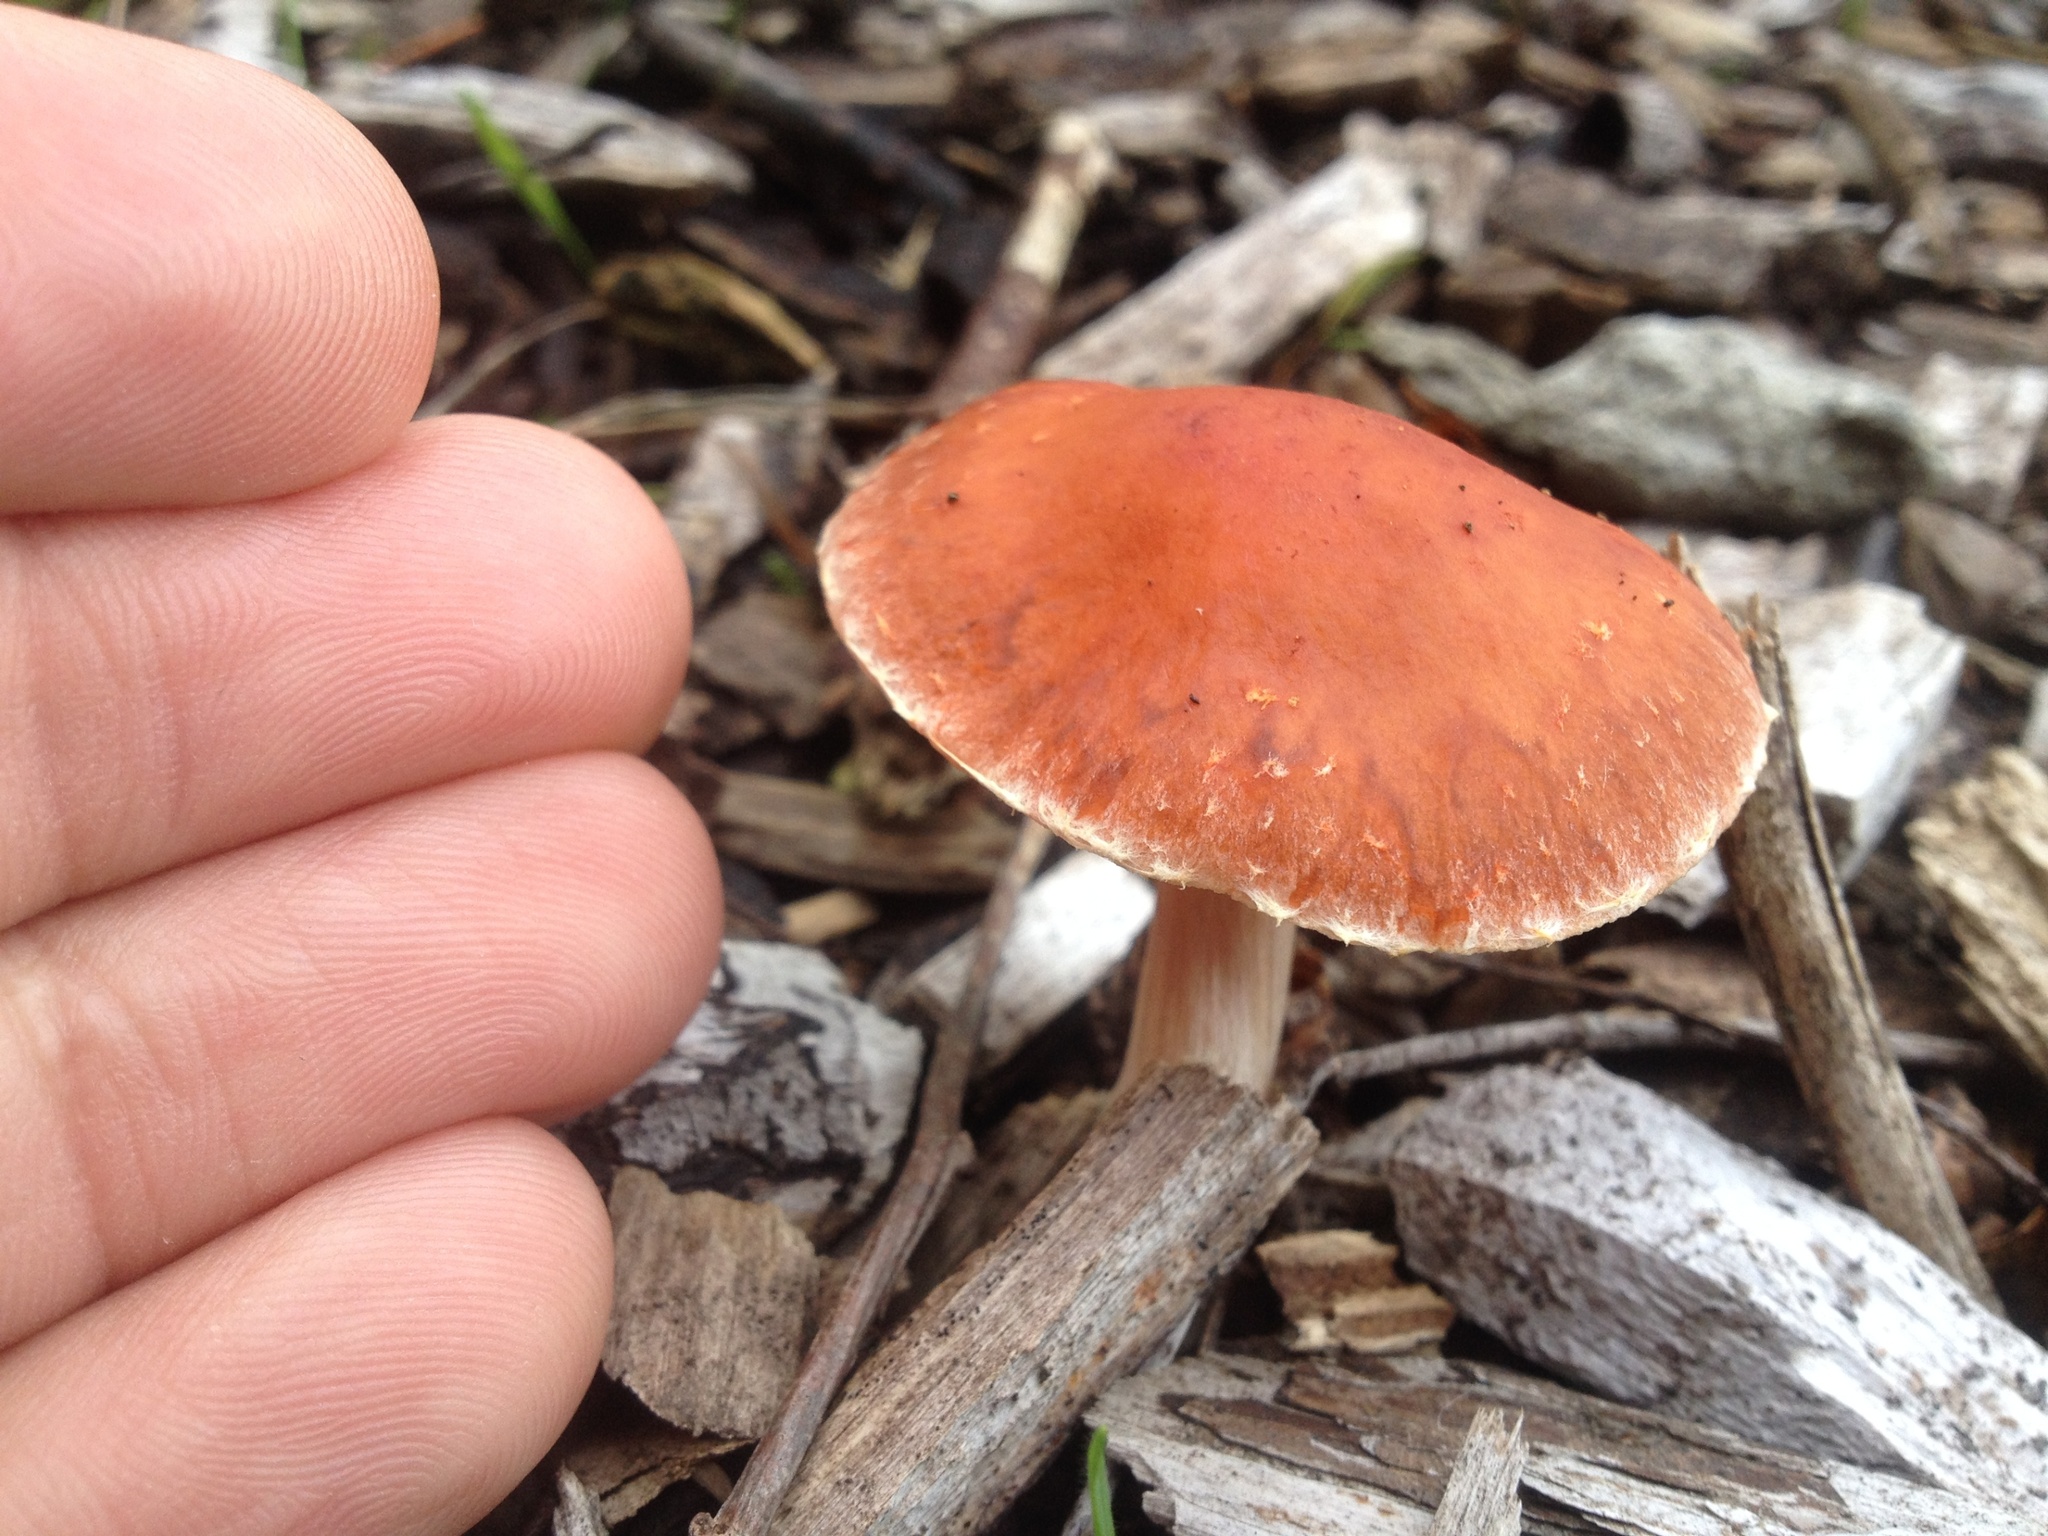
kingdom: Fungi
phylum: Basidiomycota
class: Agaricomycetes
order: Agaricales
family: Strophariaceae
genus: Leratiomyces
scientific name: Leratiomyces ceres
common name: Redlead roundhead
